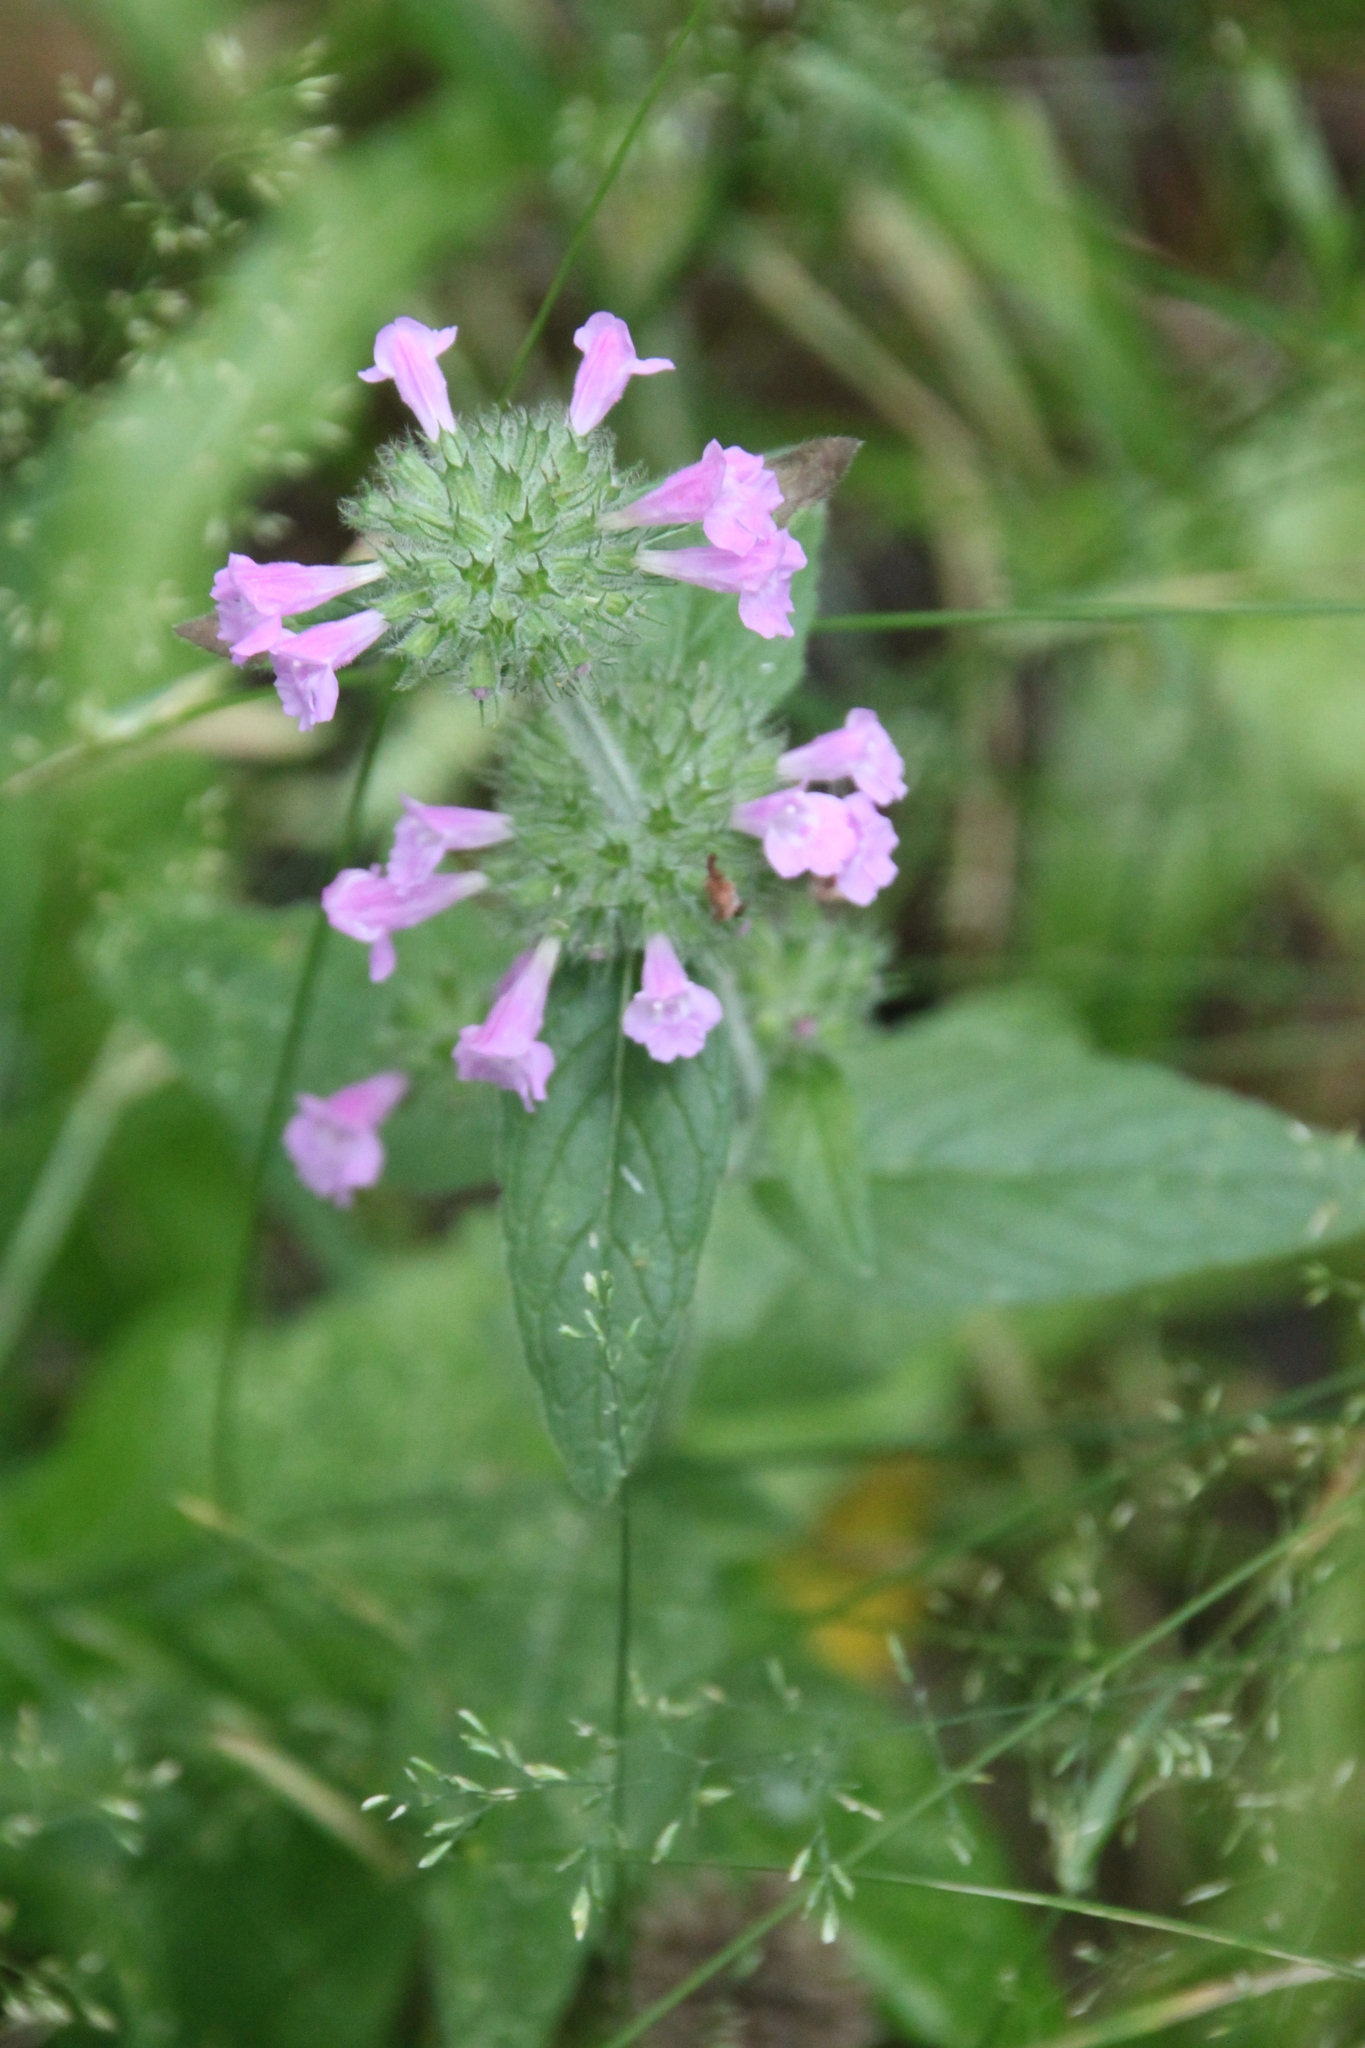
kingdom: Plantae
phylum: Tracheophyta
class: Magnoliopsida
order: Lamiales
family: Lamiaceae
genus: Clinopodium
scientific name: Clinopodium vulgare
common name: Wild basil
